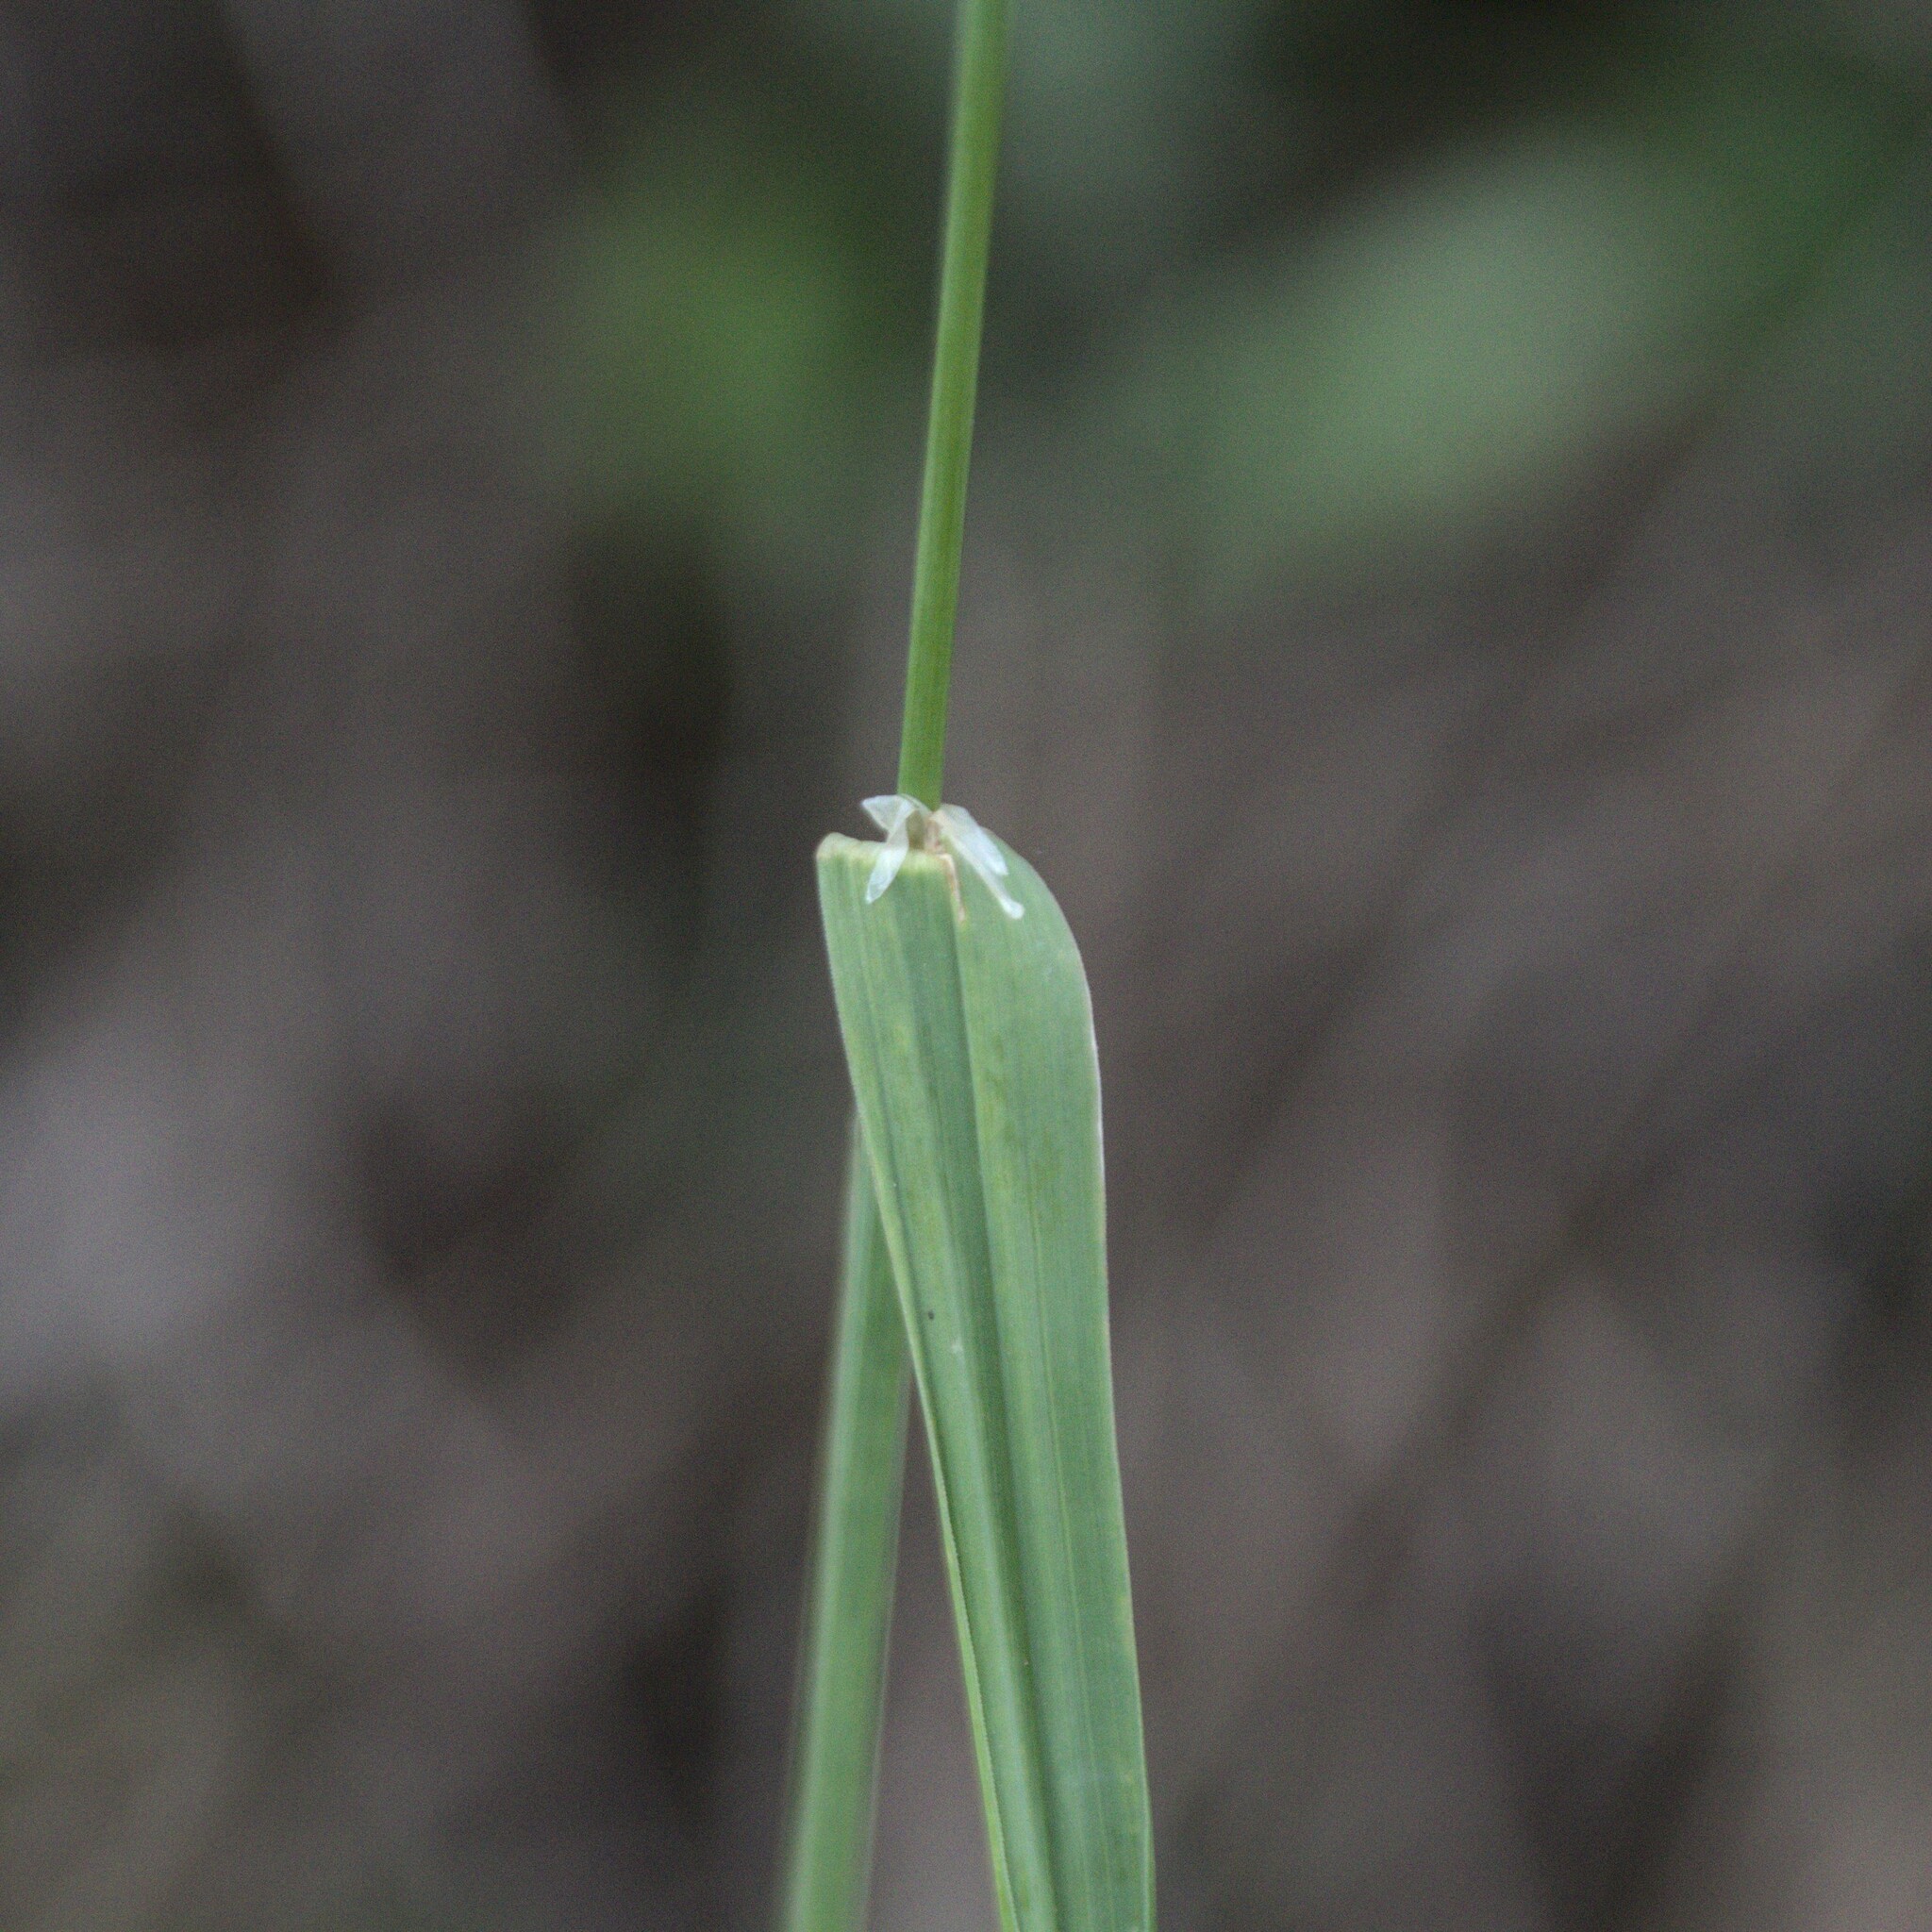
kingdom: Plantae
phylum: Tracheophyta
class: Liliopsida
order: Poales
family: Poaceae
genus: Dactylis
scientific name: Dactylis glomerata
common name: Orchardgrass
